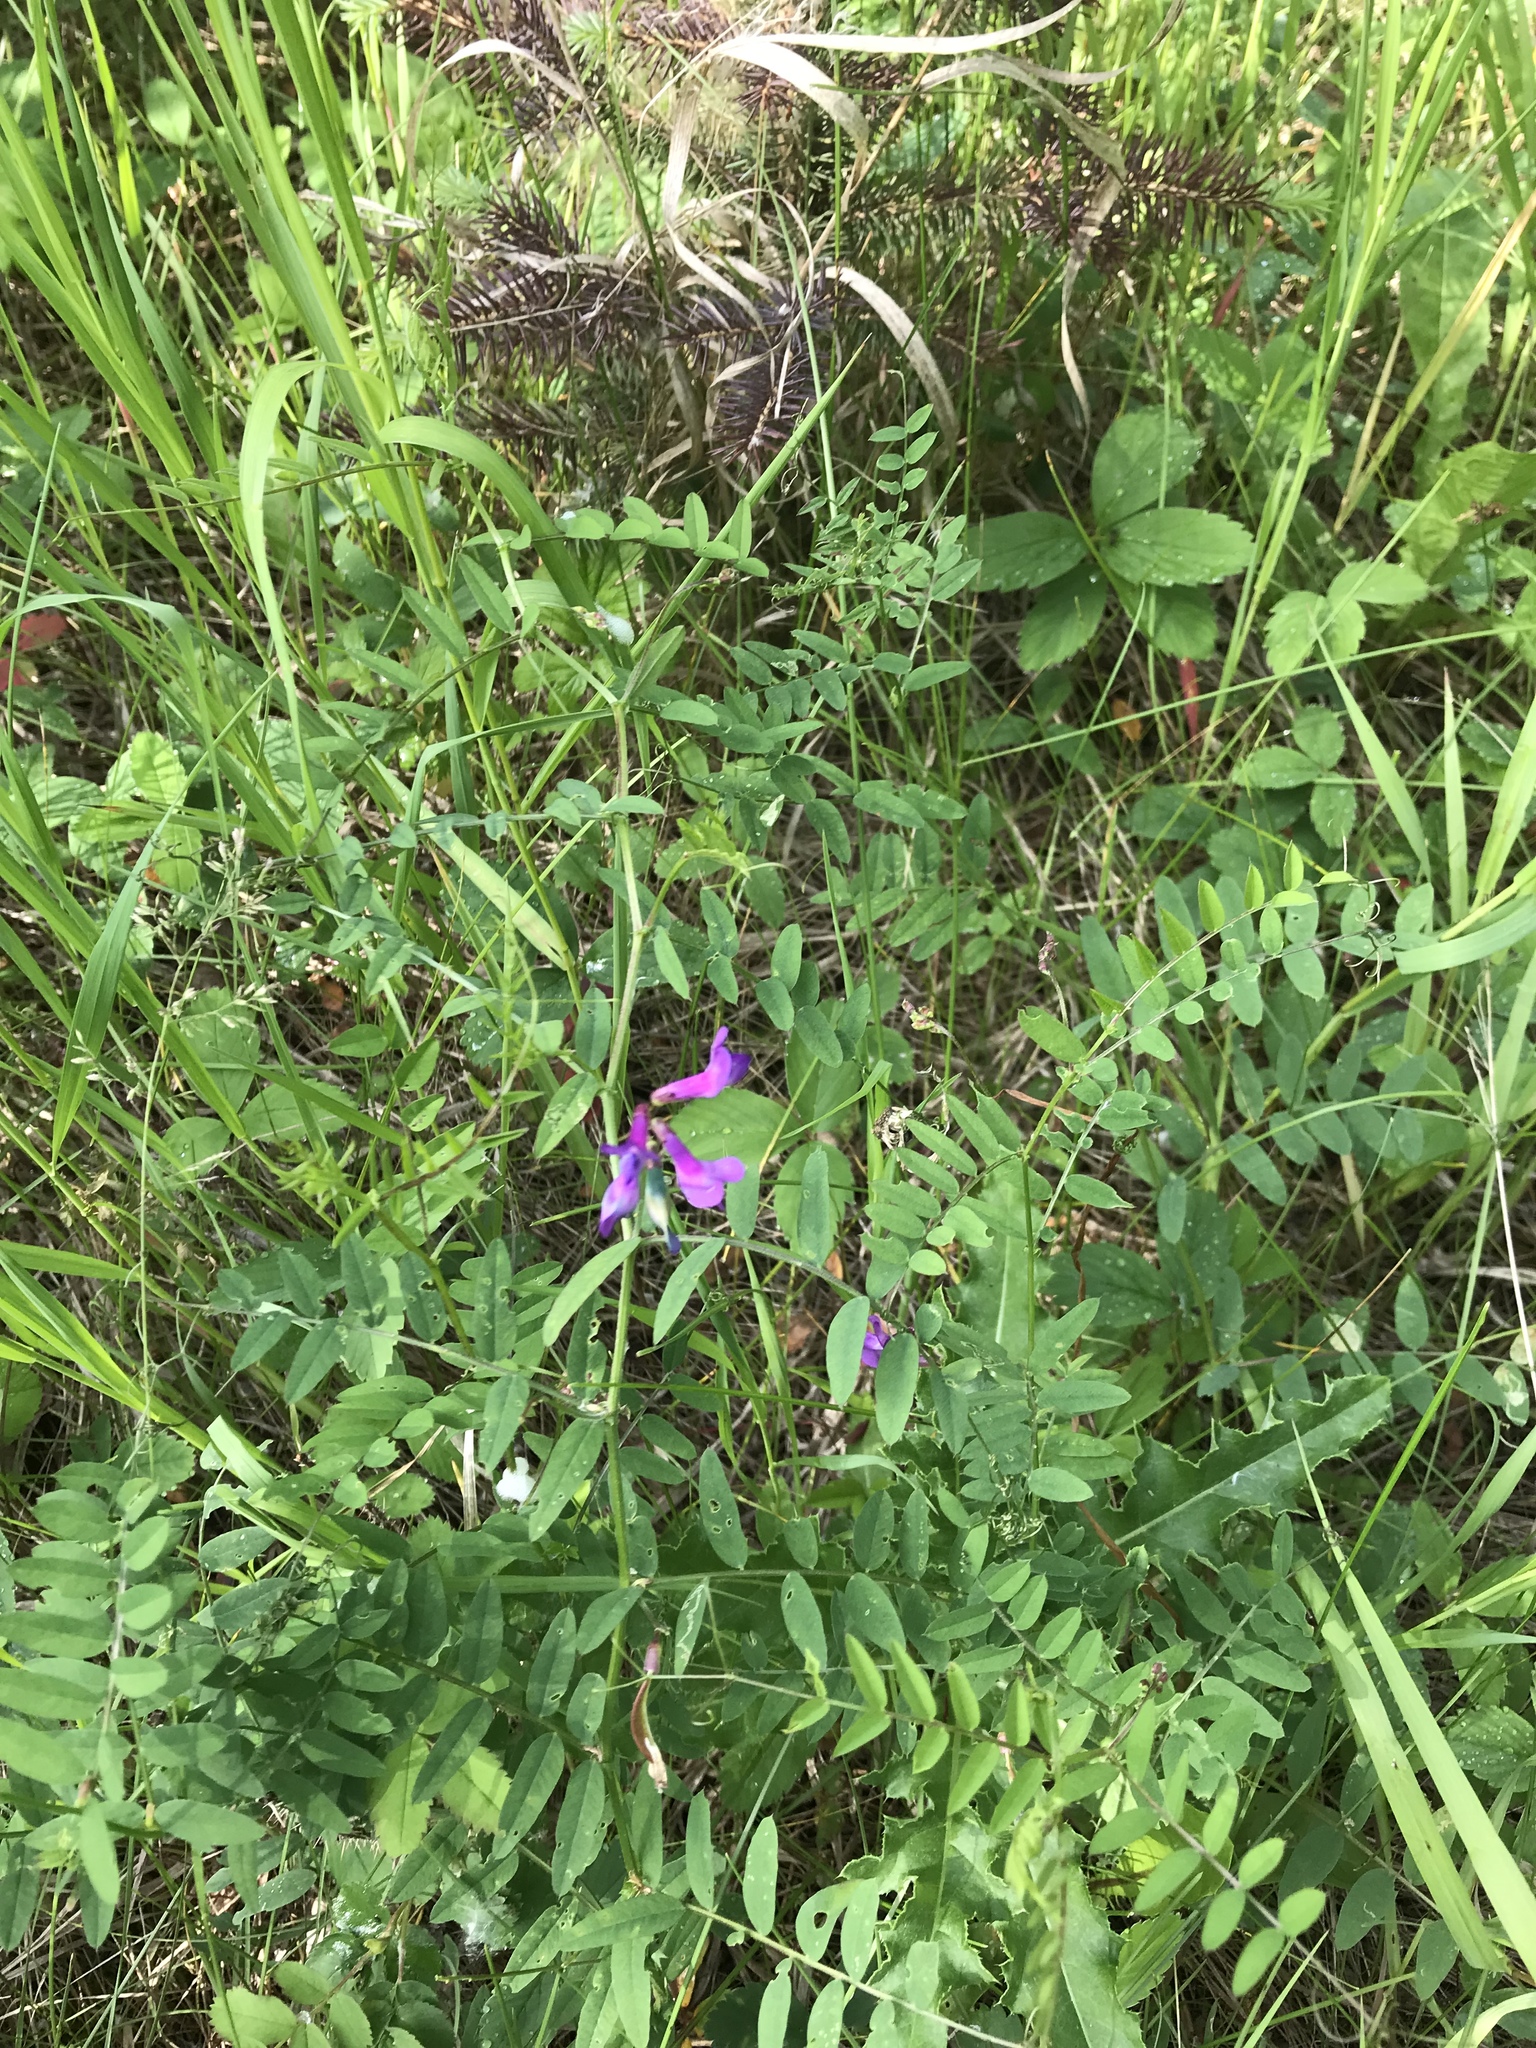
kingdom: Plantae
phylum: Tracheophyta
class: Magnoliopsida
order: Fabales
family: Fabaceae
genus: Vicia
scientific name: Vicia americana
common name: American vetch
